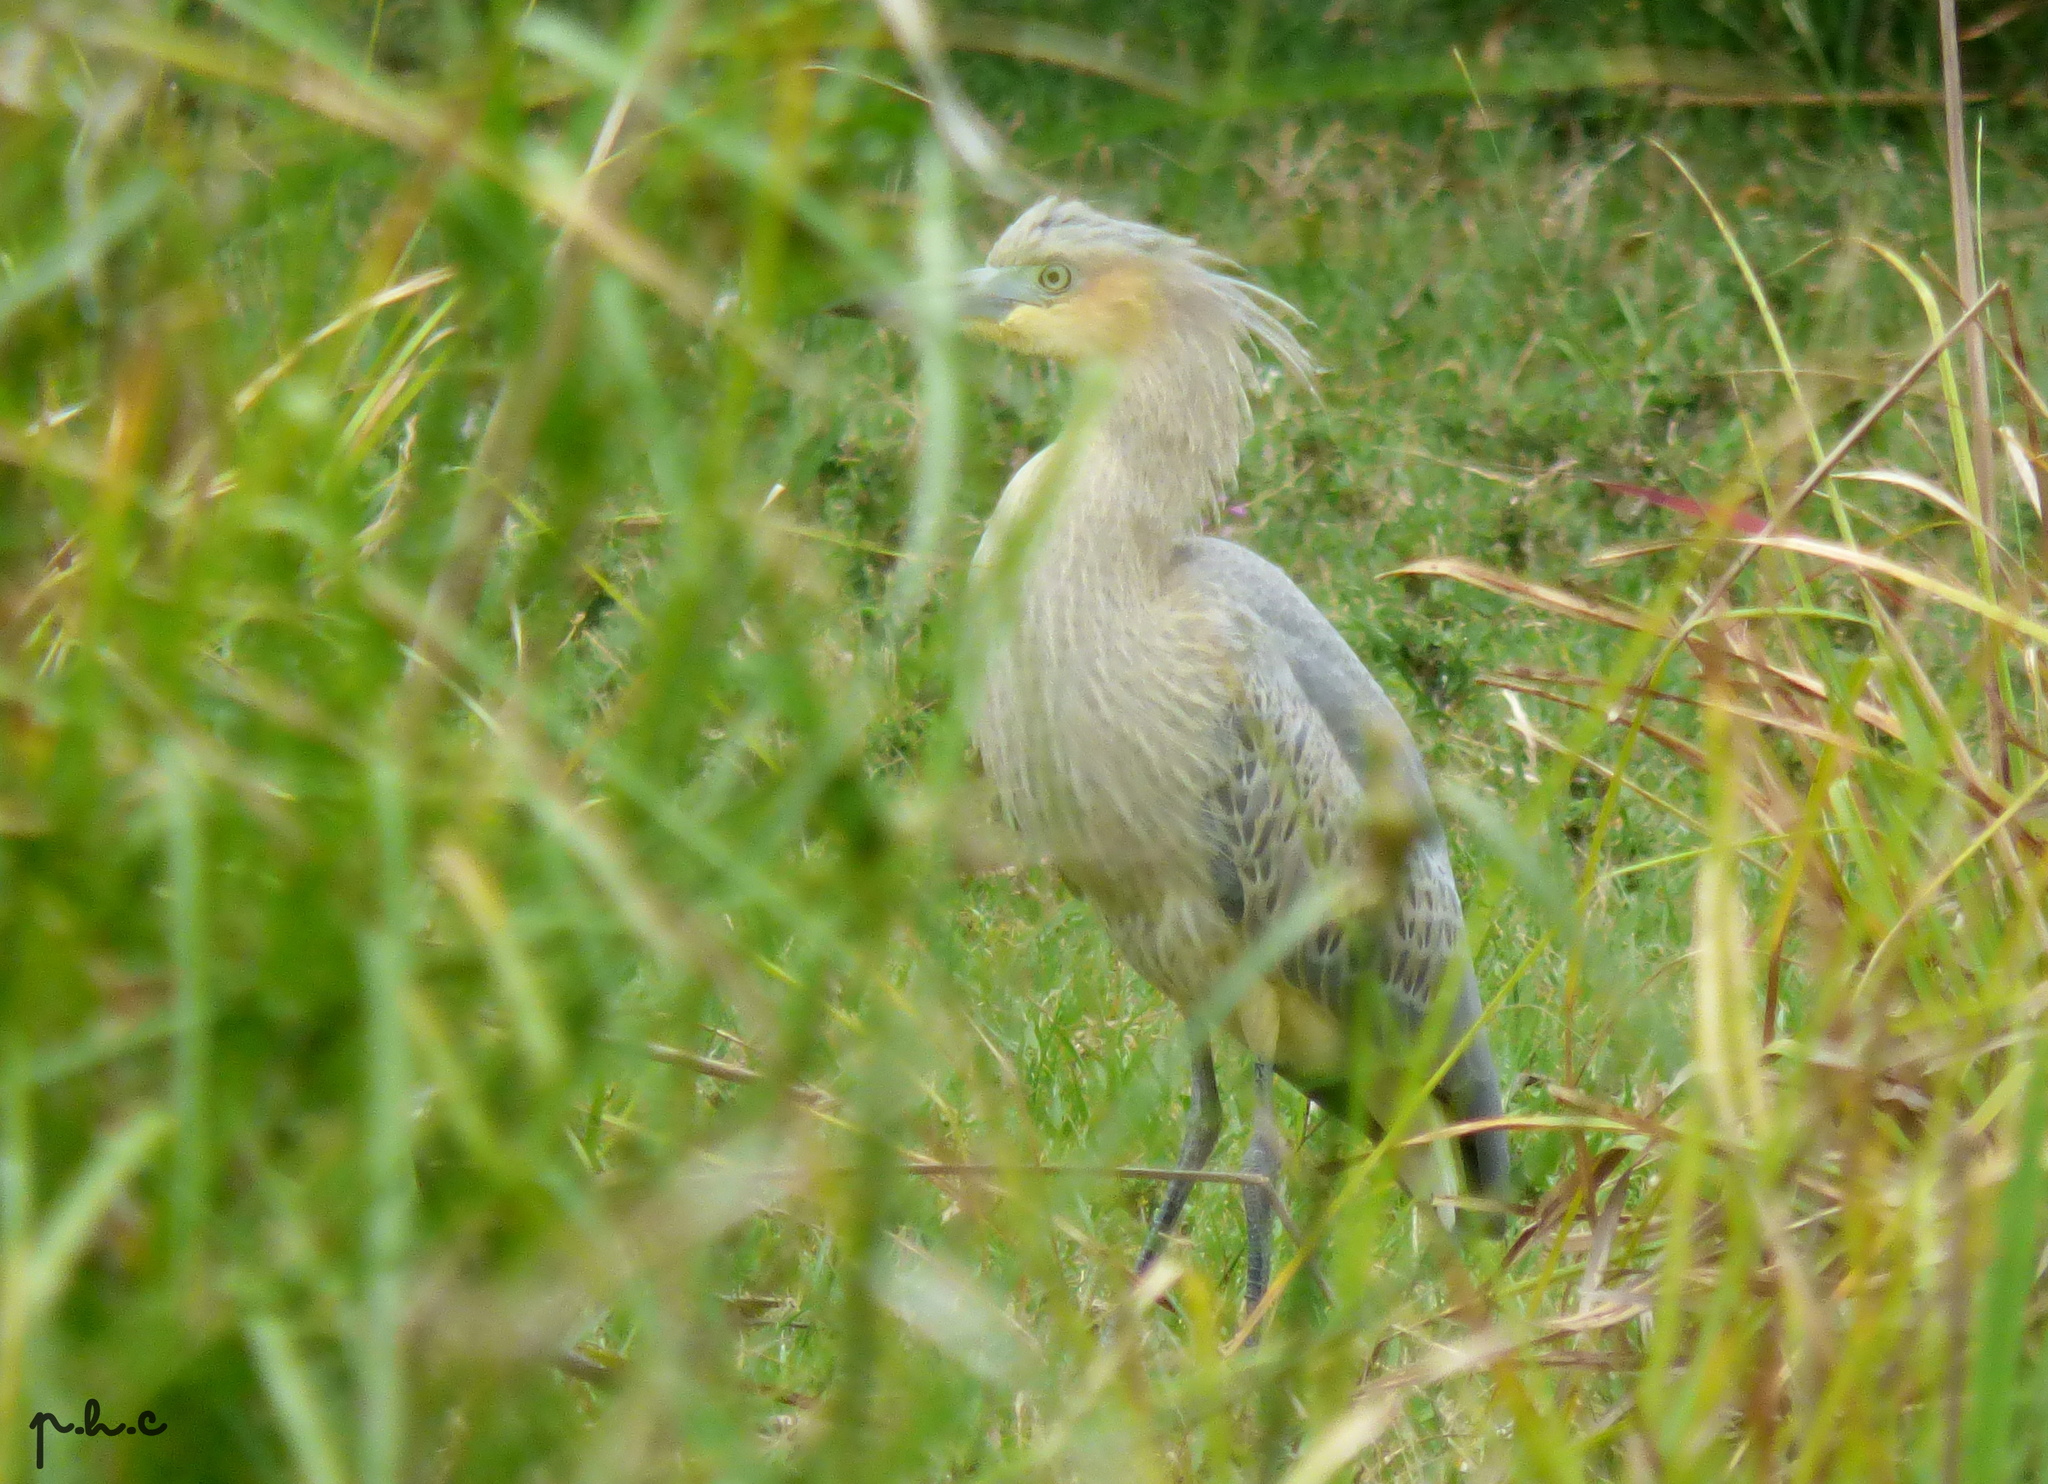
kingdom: Animalia
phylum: Chordata
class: Aves
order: Pelecaniformes
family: Ardeidae
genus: Syrigma
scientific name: Syrigma sibilatrix
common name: Whistling heron
